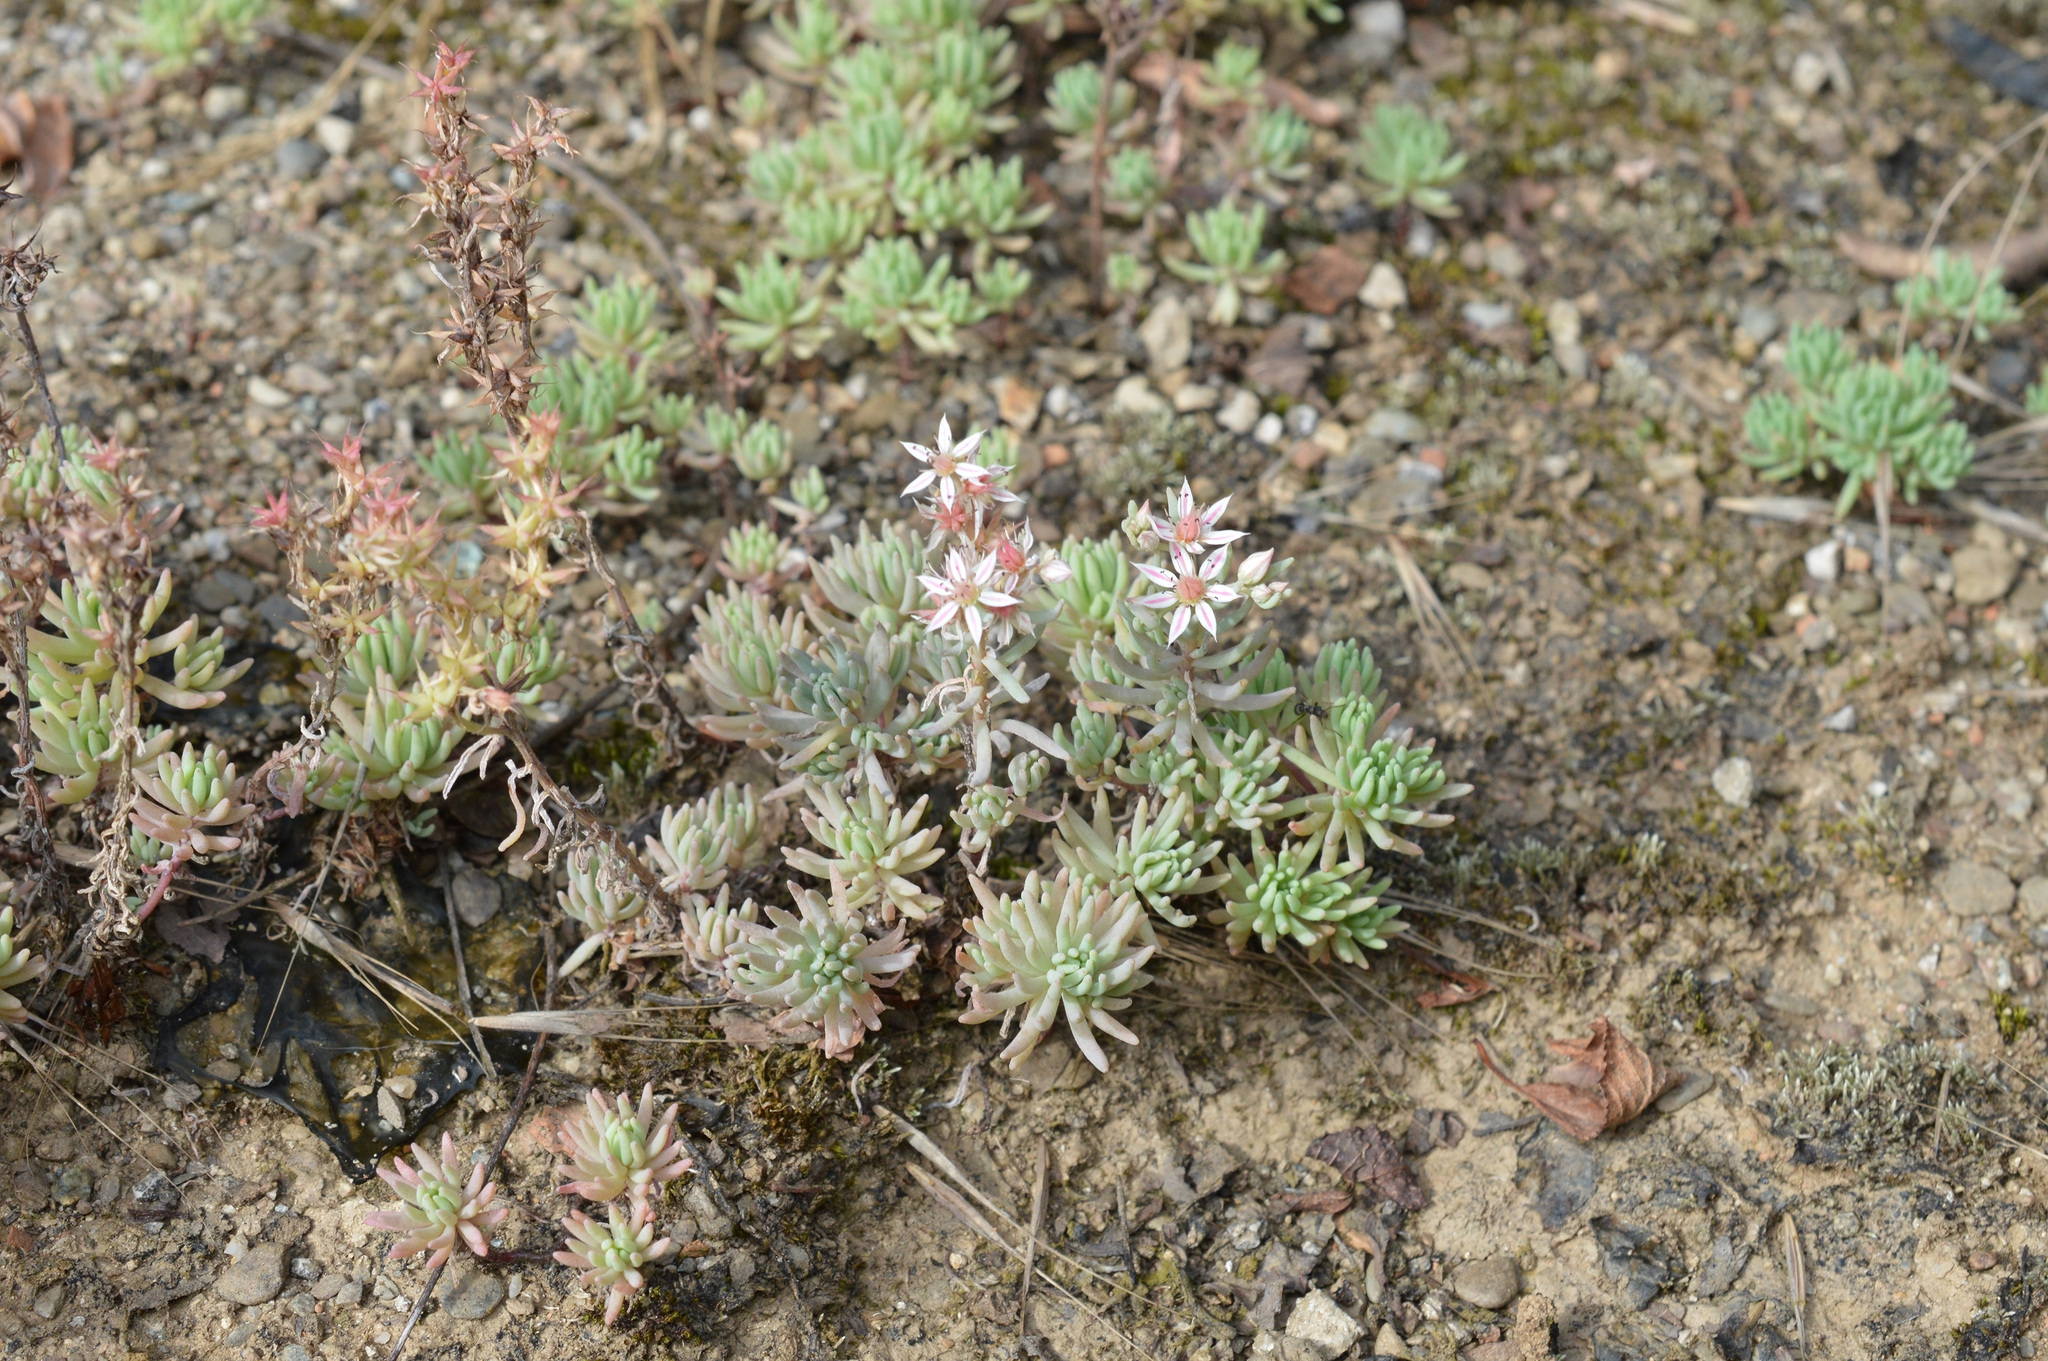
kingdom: Plantae
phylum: Tracheophyta
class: Magnoliopsida
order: Saxifragales
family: Crassulaceae
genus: Sedum
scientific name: Sedum hispanicum
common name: Spanish stonecrop
